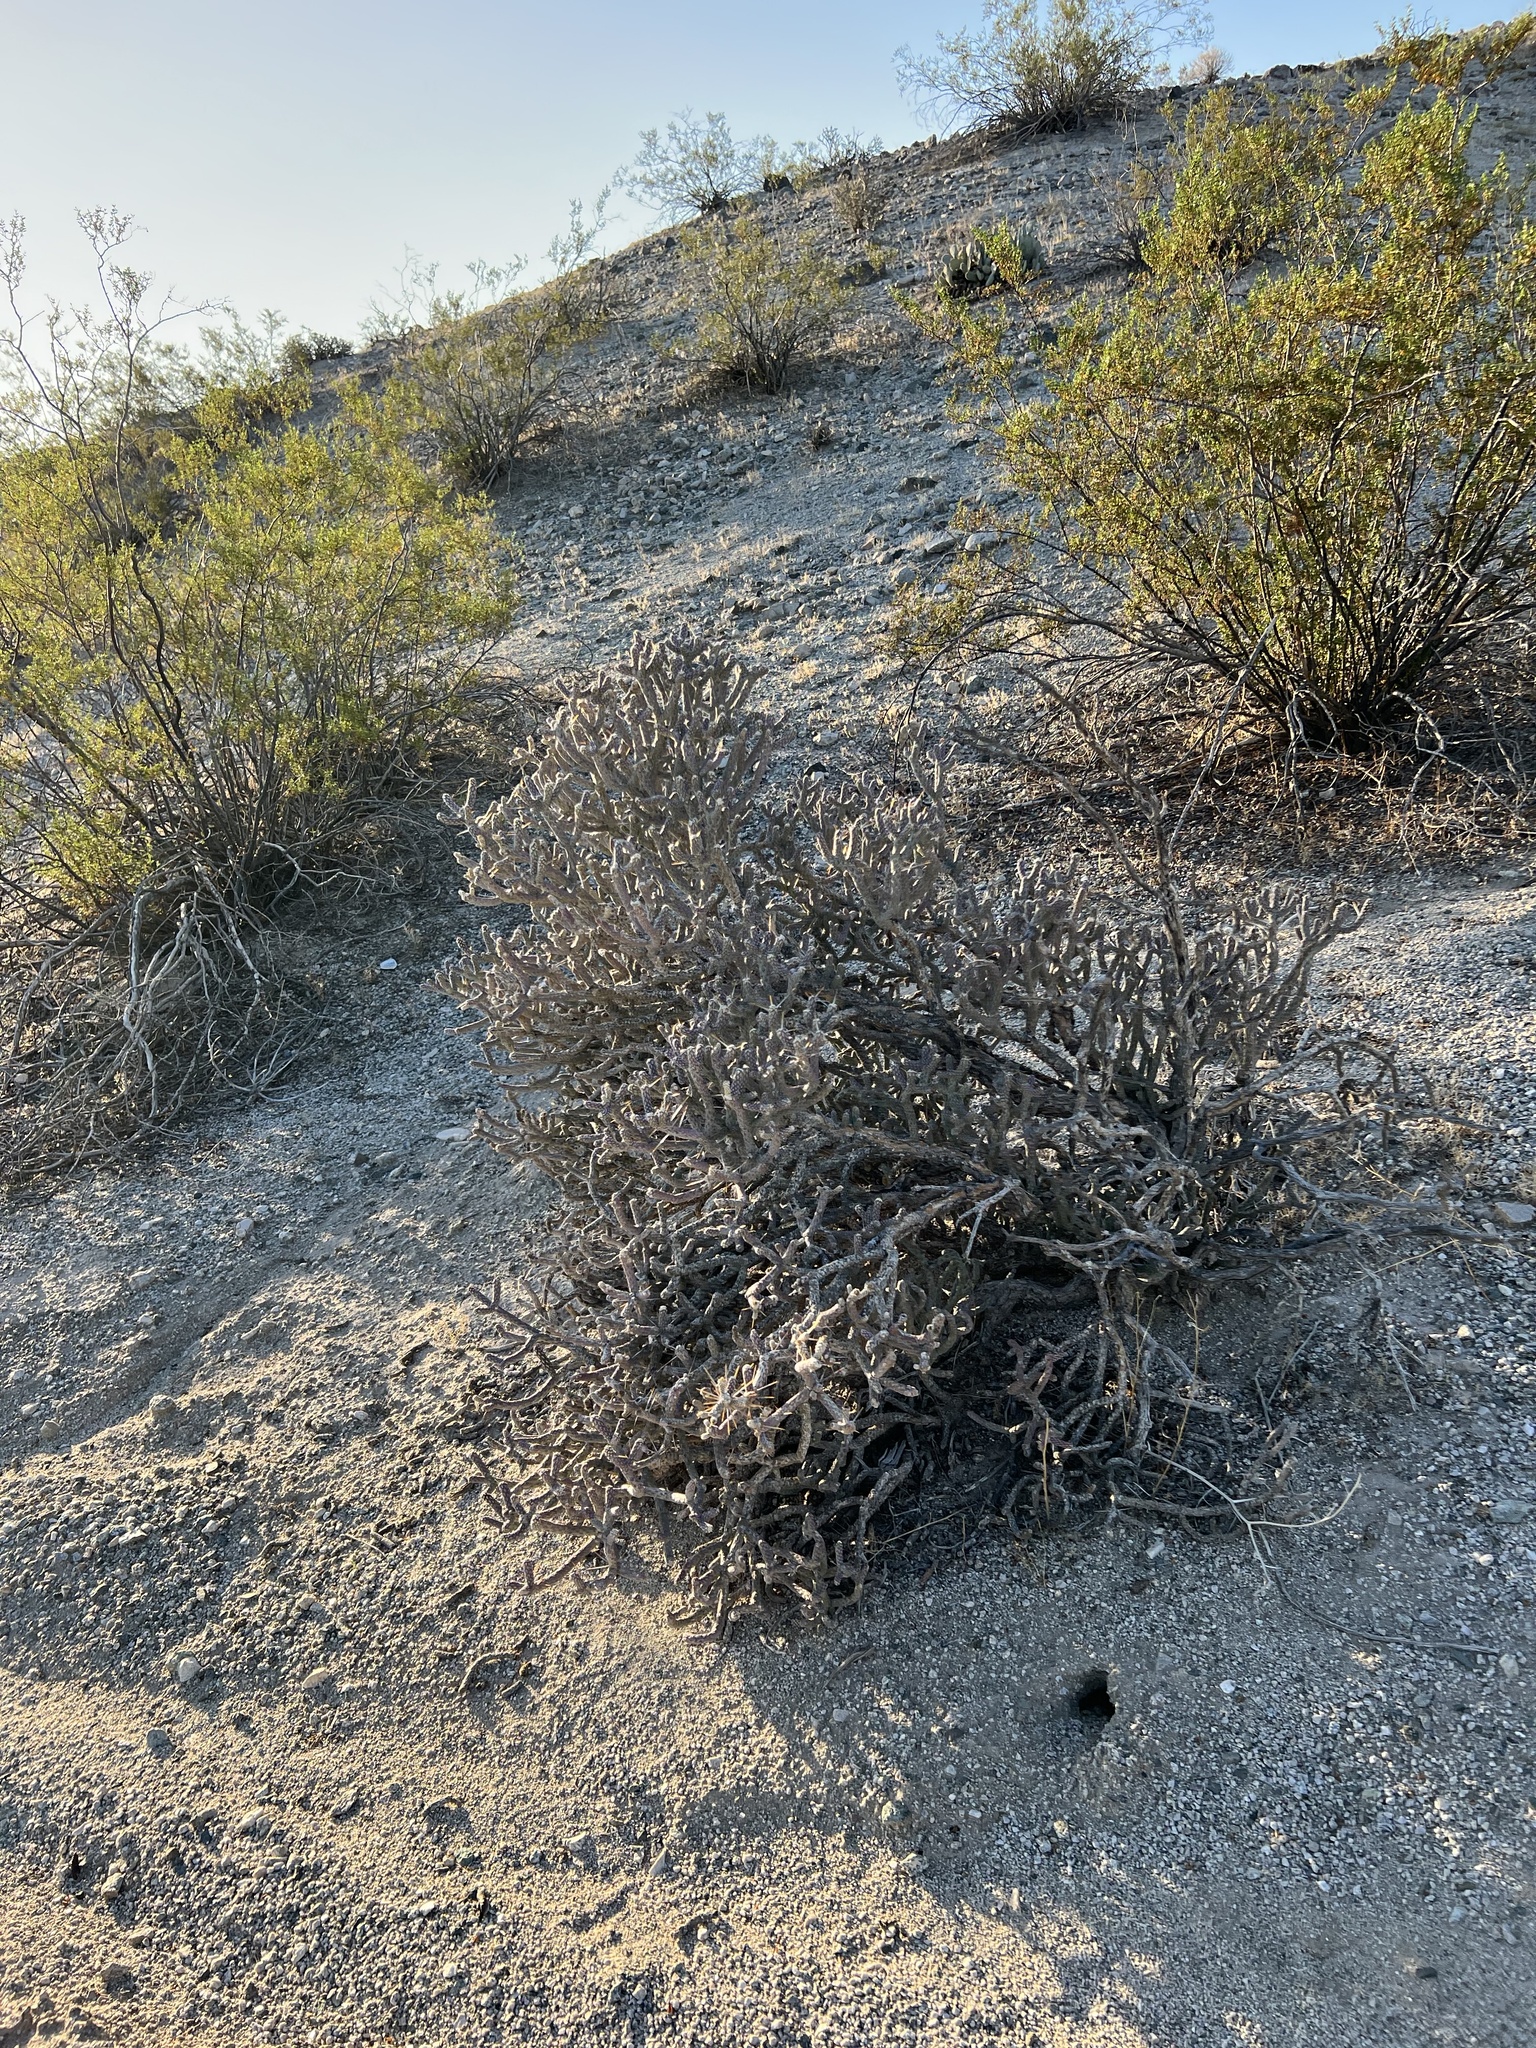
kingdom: Plantae
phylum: Tracheophyta
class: Magnoliopsida
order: Caryophyllales
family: Cactaceae
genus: Cylindropuntia
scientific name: Cylindropuntia ramosissima
